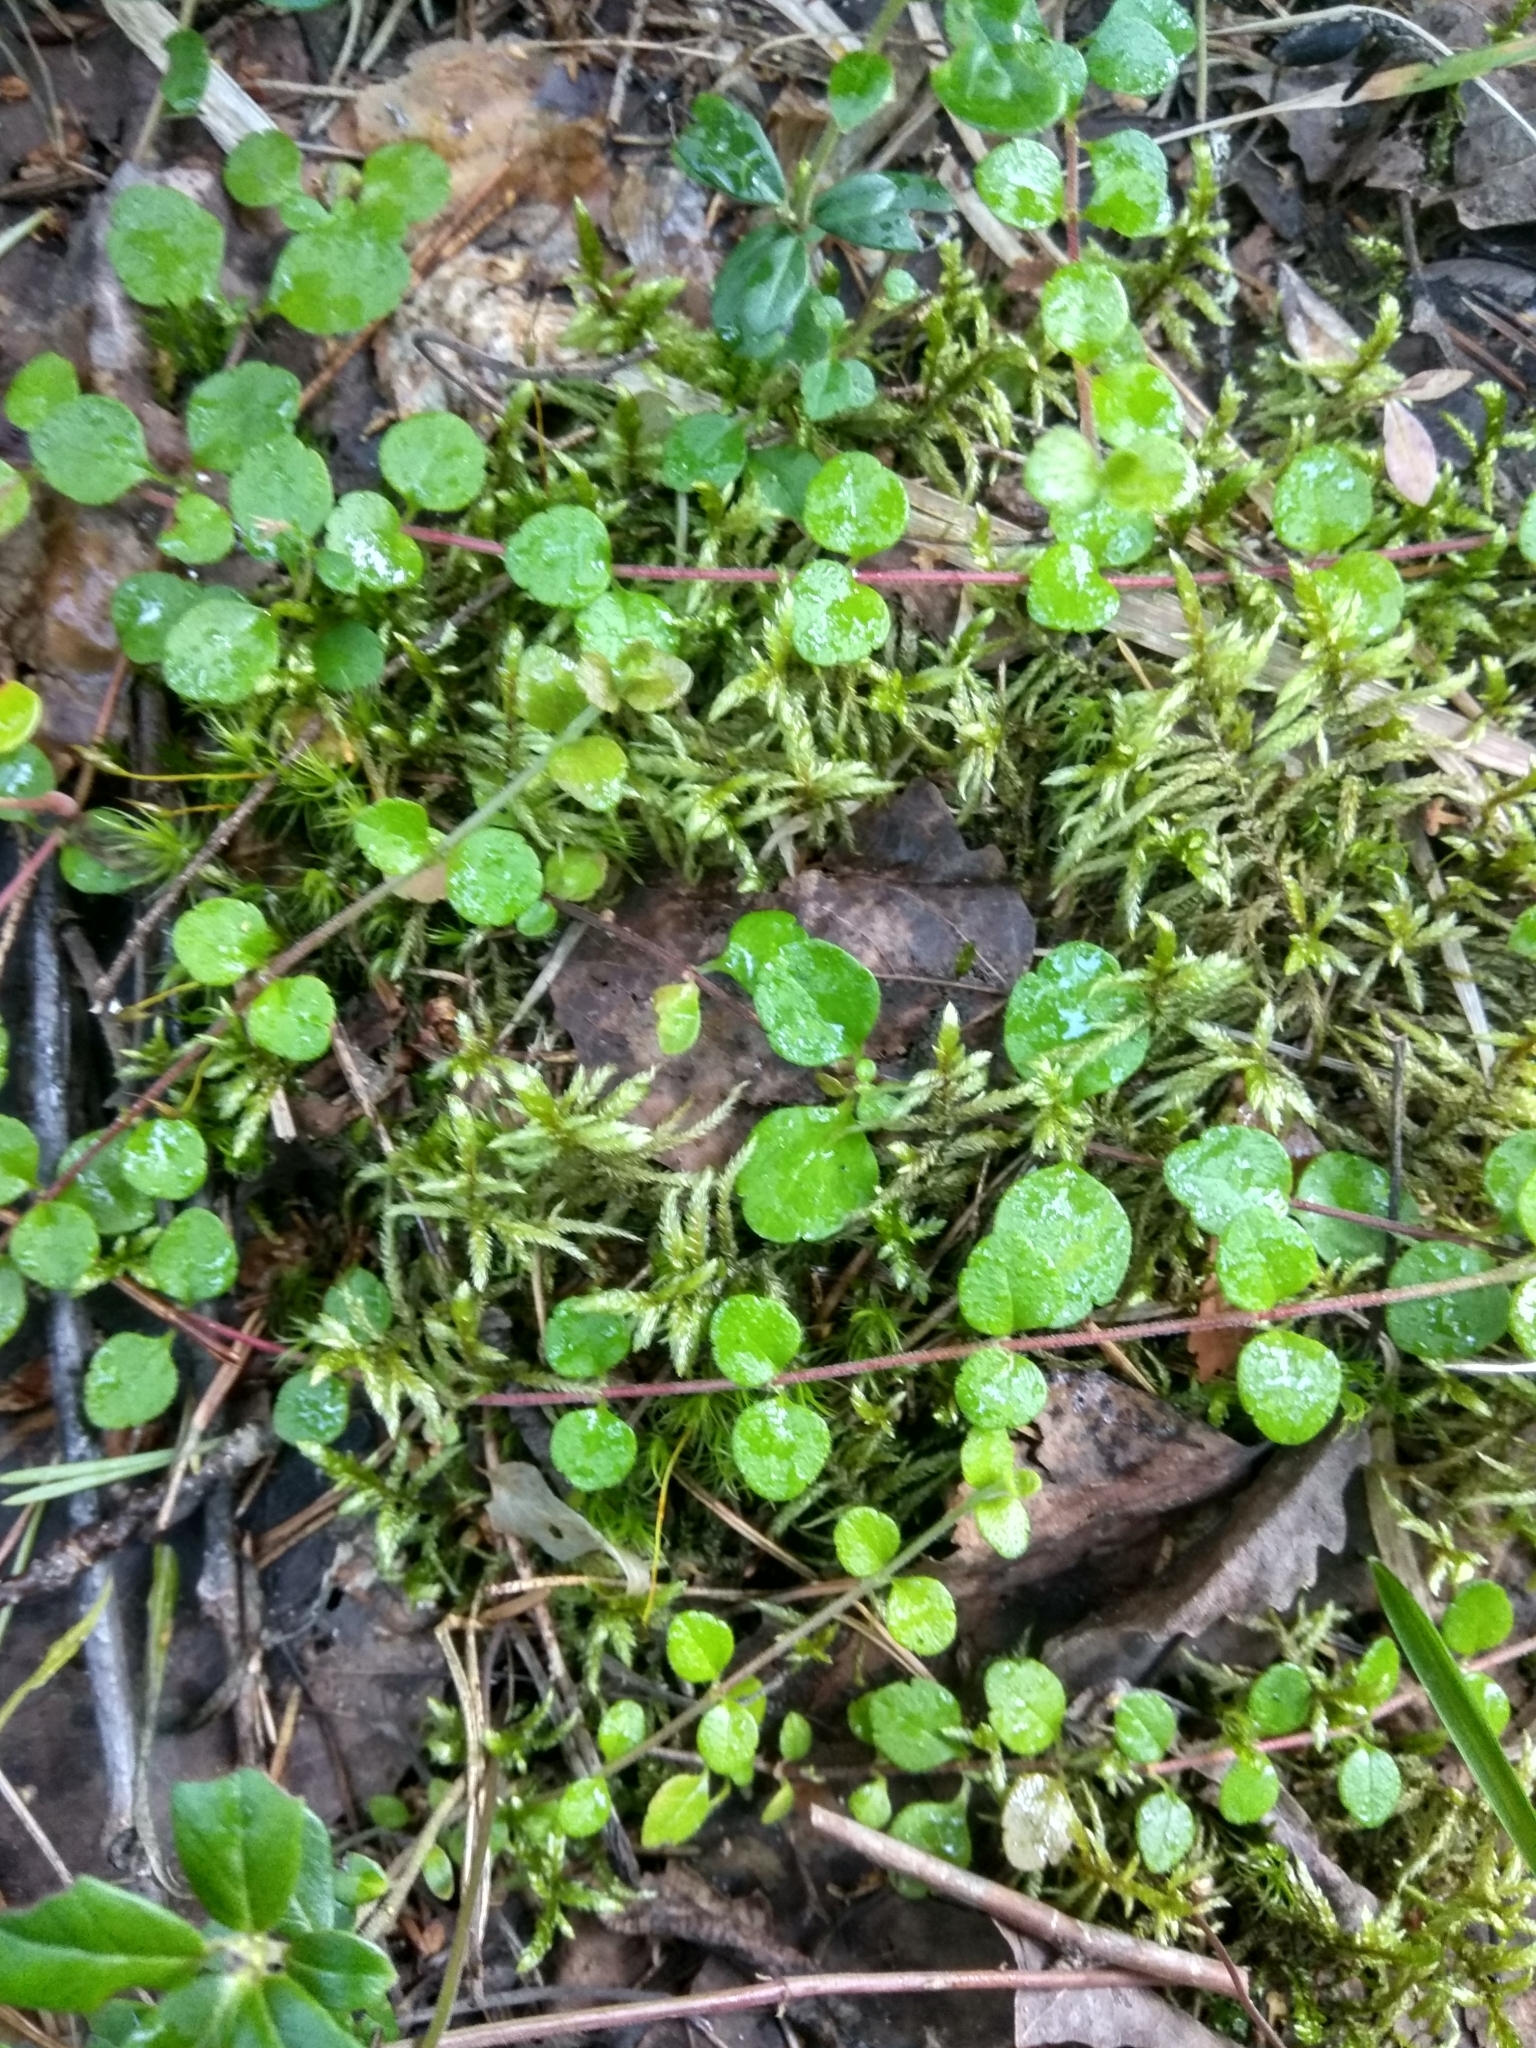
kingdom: Plantae
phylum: Tracheophyta
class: Magnoliopsida
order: Dipsacales
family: Caprifoliaceae
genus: Linnaea
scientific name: Linnaea borealis
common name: Twinflower
